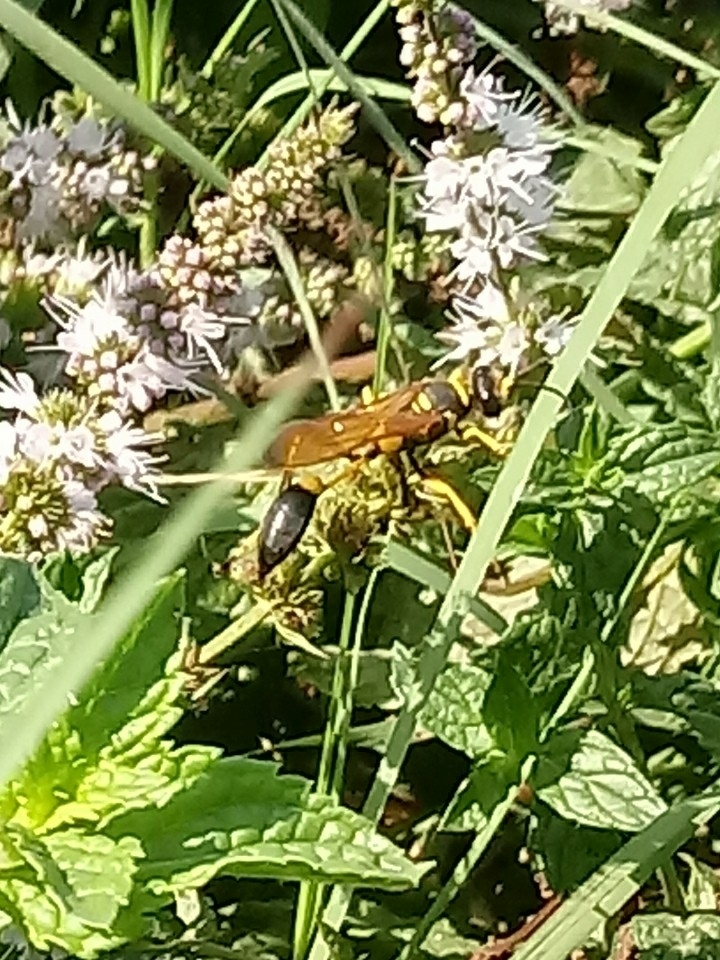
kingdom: Animalia
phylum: Arthropoda
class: Insecta
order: Hymenoptera
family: Sphecidae
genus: Sceliphron
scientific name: Sceliphron caementarium
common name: Mud dauber
